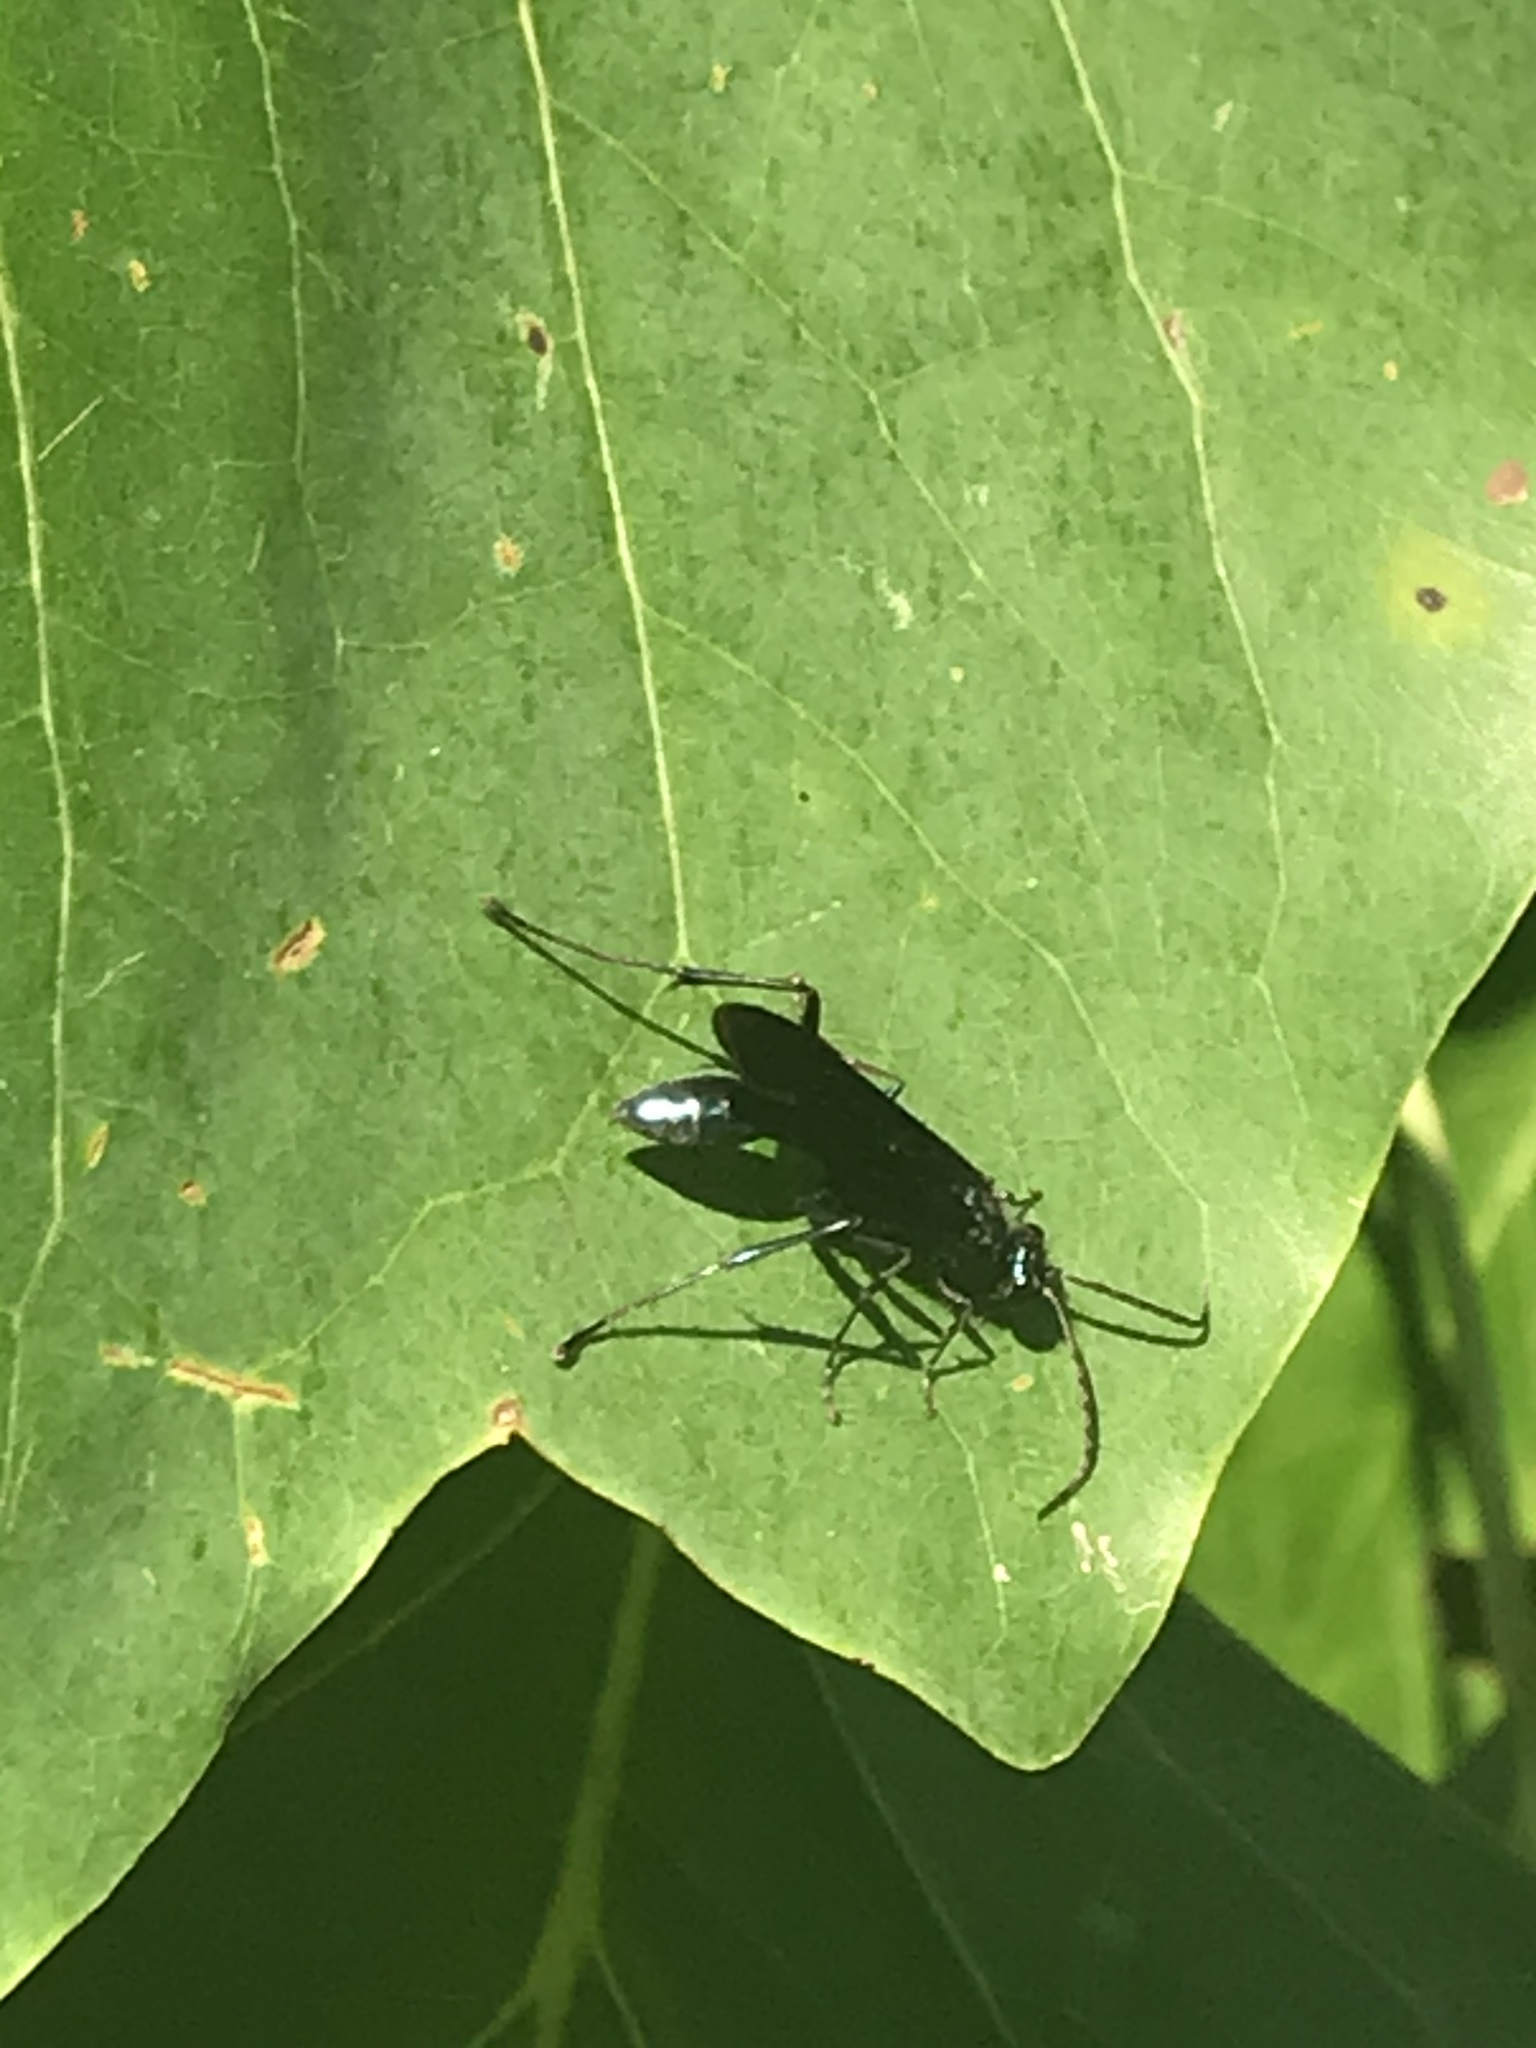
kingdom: Animalia
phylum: Arthropoda
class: Insecta
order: Hymenoptera
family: Sphecidae
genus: Chalybion
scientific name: Chalybion californicum
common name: Mud dauber
